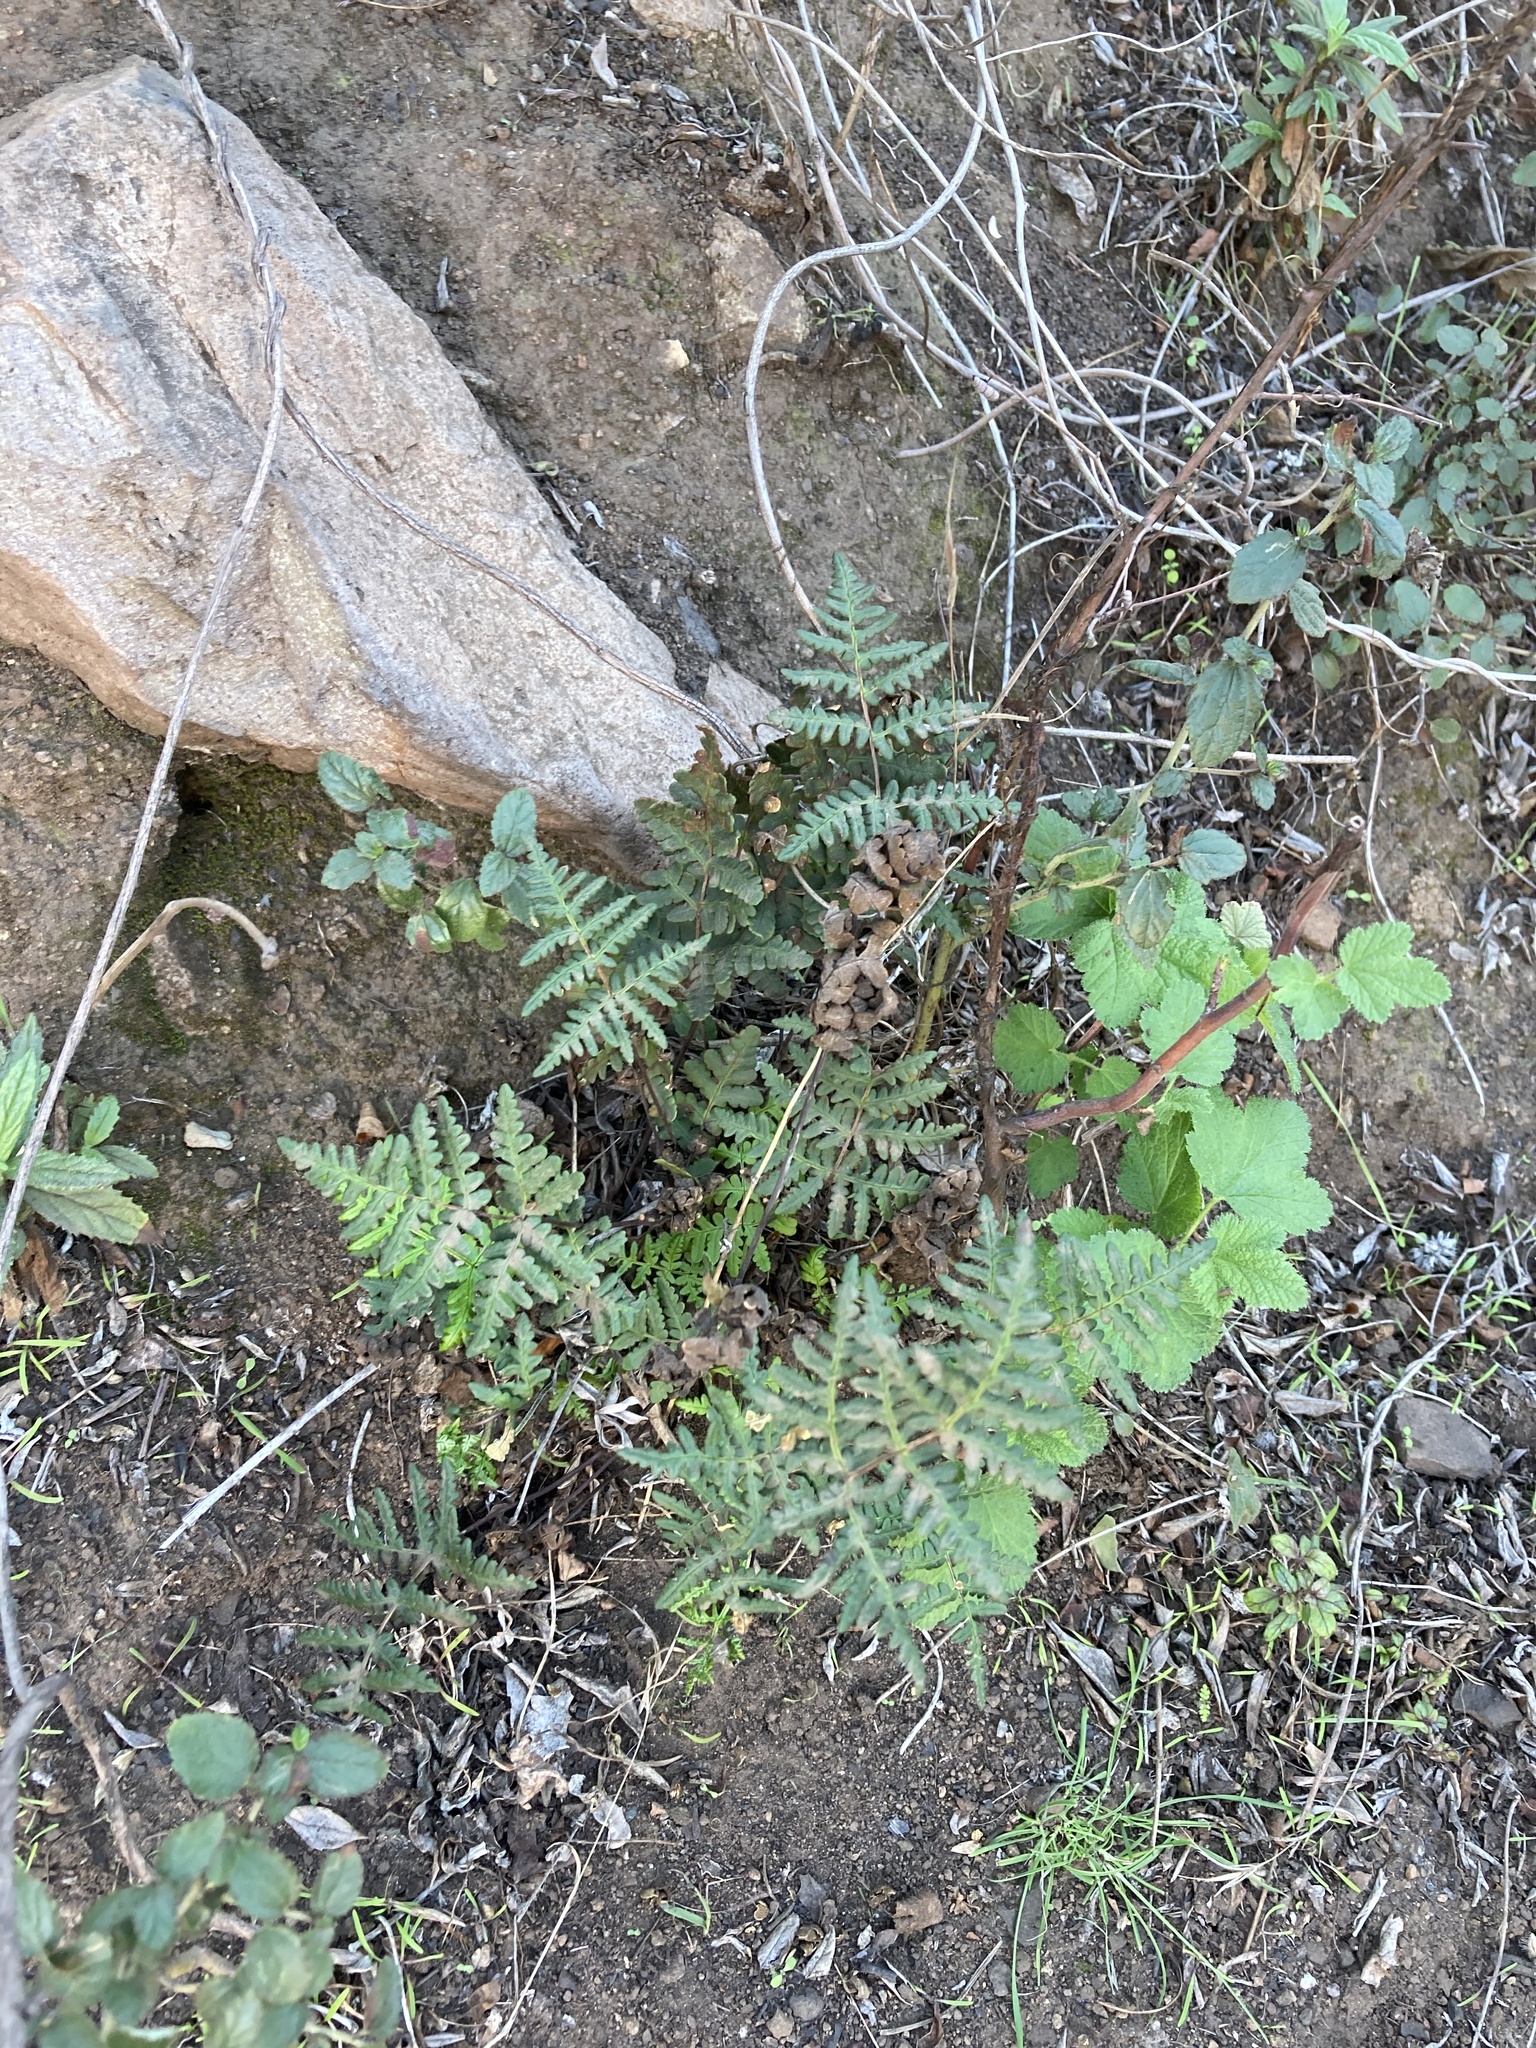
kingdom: Plantae
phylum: Tracheophyta
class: Polypodiopsida
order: Polypodiales
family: Pteridaceae
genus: Pentagramma
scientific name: Pentagramma triangularis
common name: Gold fern
